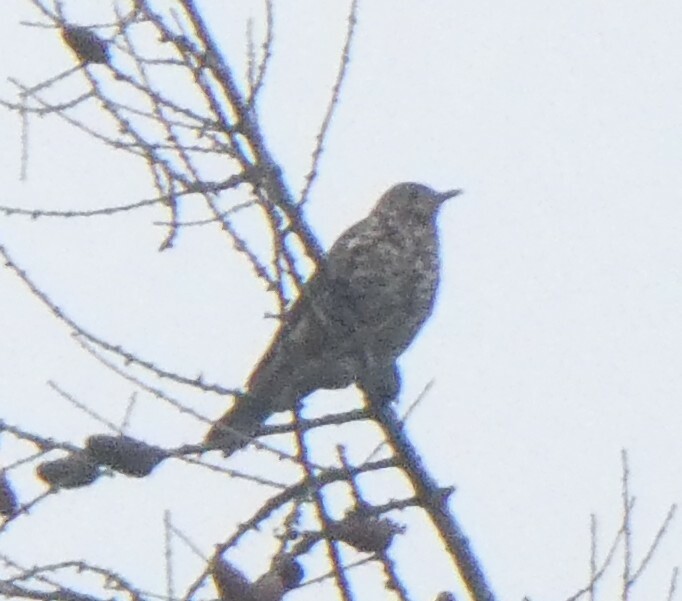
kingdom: Animalia
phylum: Chordata
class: Aves
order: Passeriformes
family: Turdidae
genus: Turdus
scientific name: Turdus viscivorus
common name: Mistle thrush
